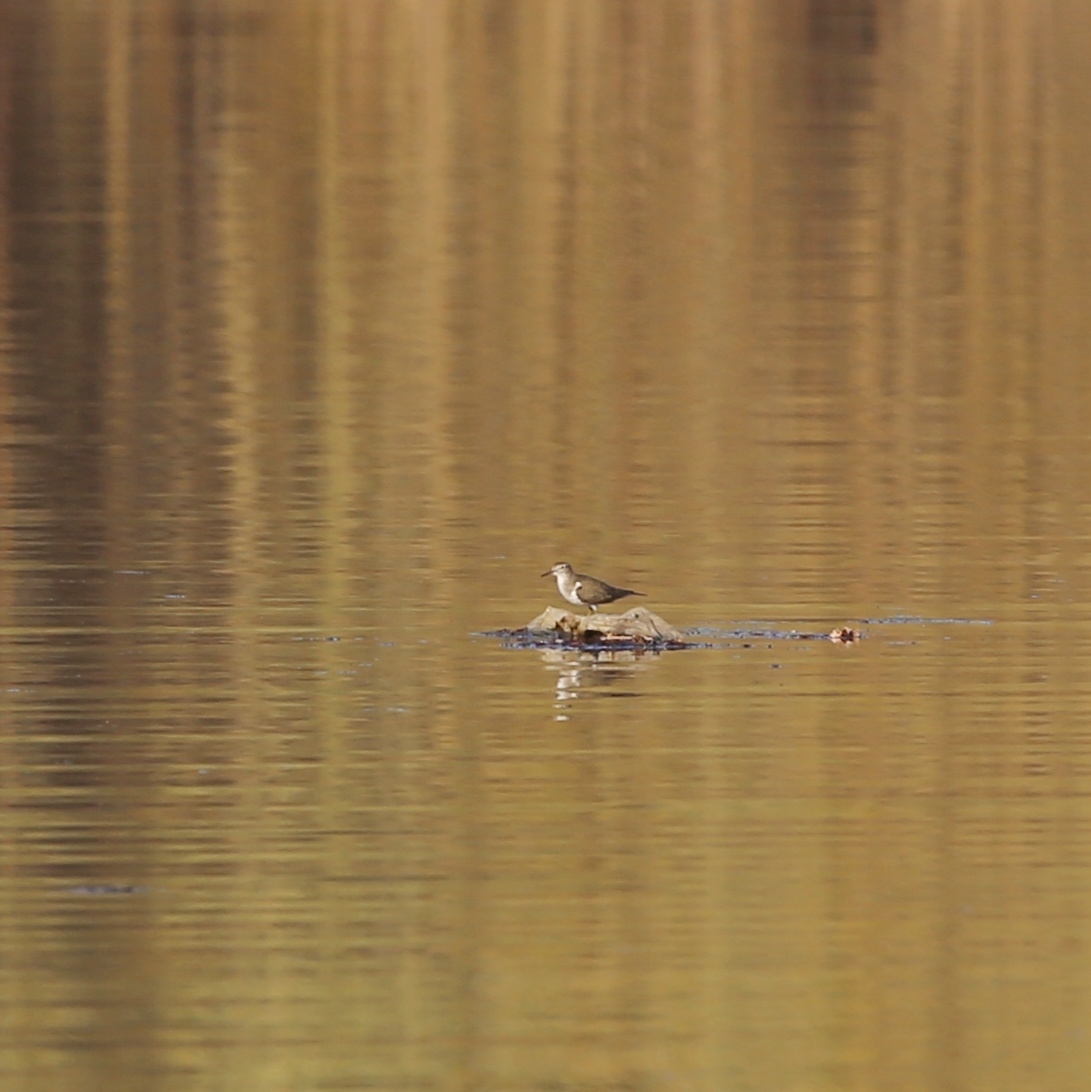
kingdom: Animalia
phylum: Chordata
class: Aves
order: Charadriiformes
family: Scolopacidae
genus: Actitis
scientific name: Actitis hypoleucos
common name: Common sandpiper
